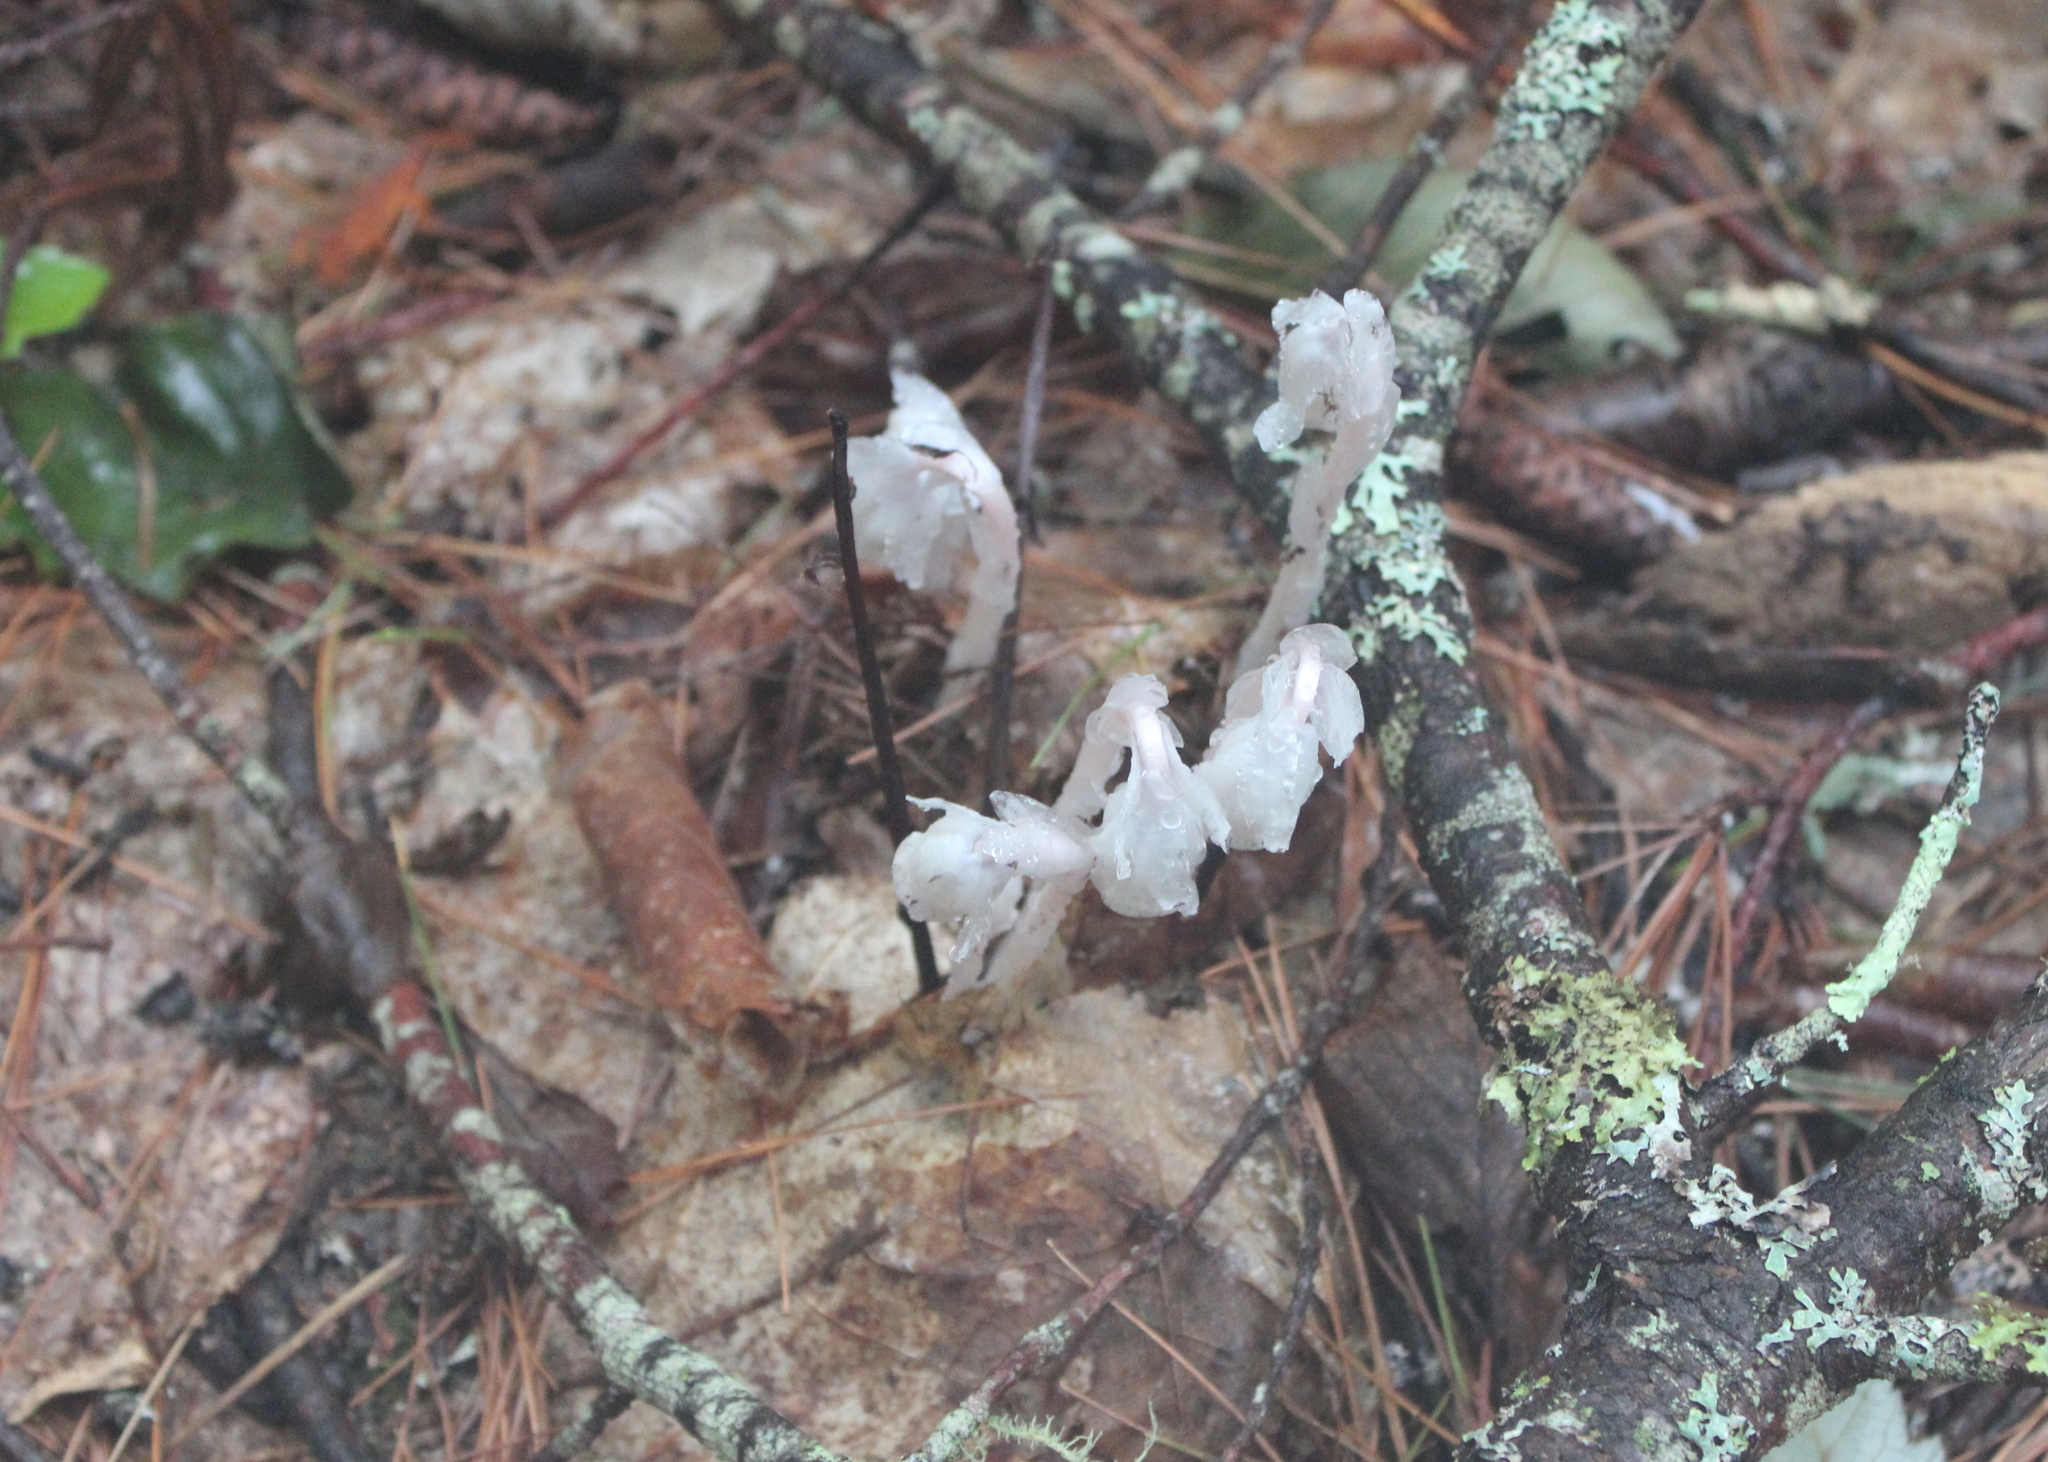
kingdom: Plantae
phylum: Tracheophyta
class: Magnoliopsida
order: Ericales
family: Ericaceae
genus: Monotropa
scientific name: Monotropa uniflora
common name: Convulsion root
